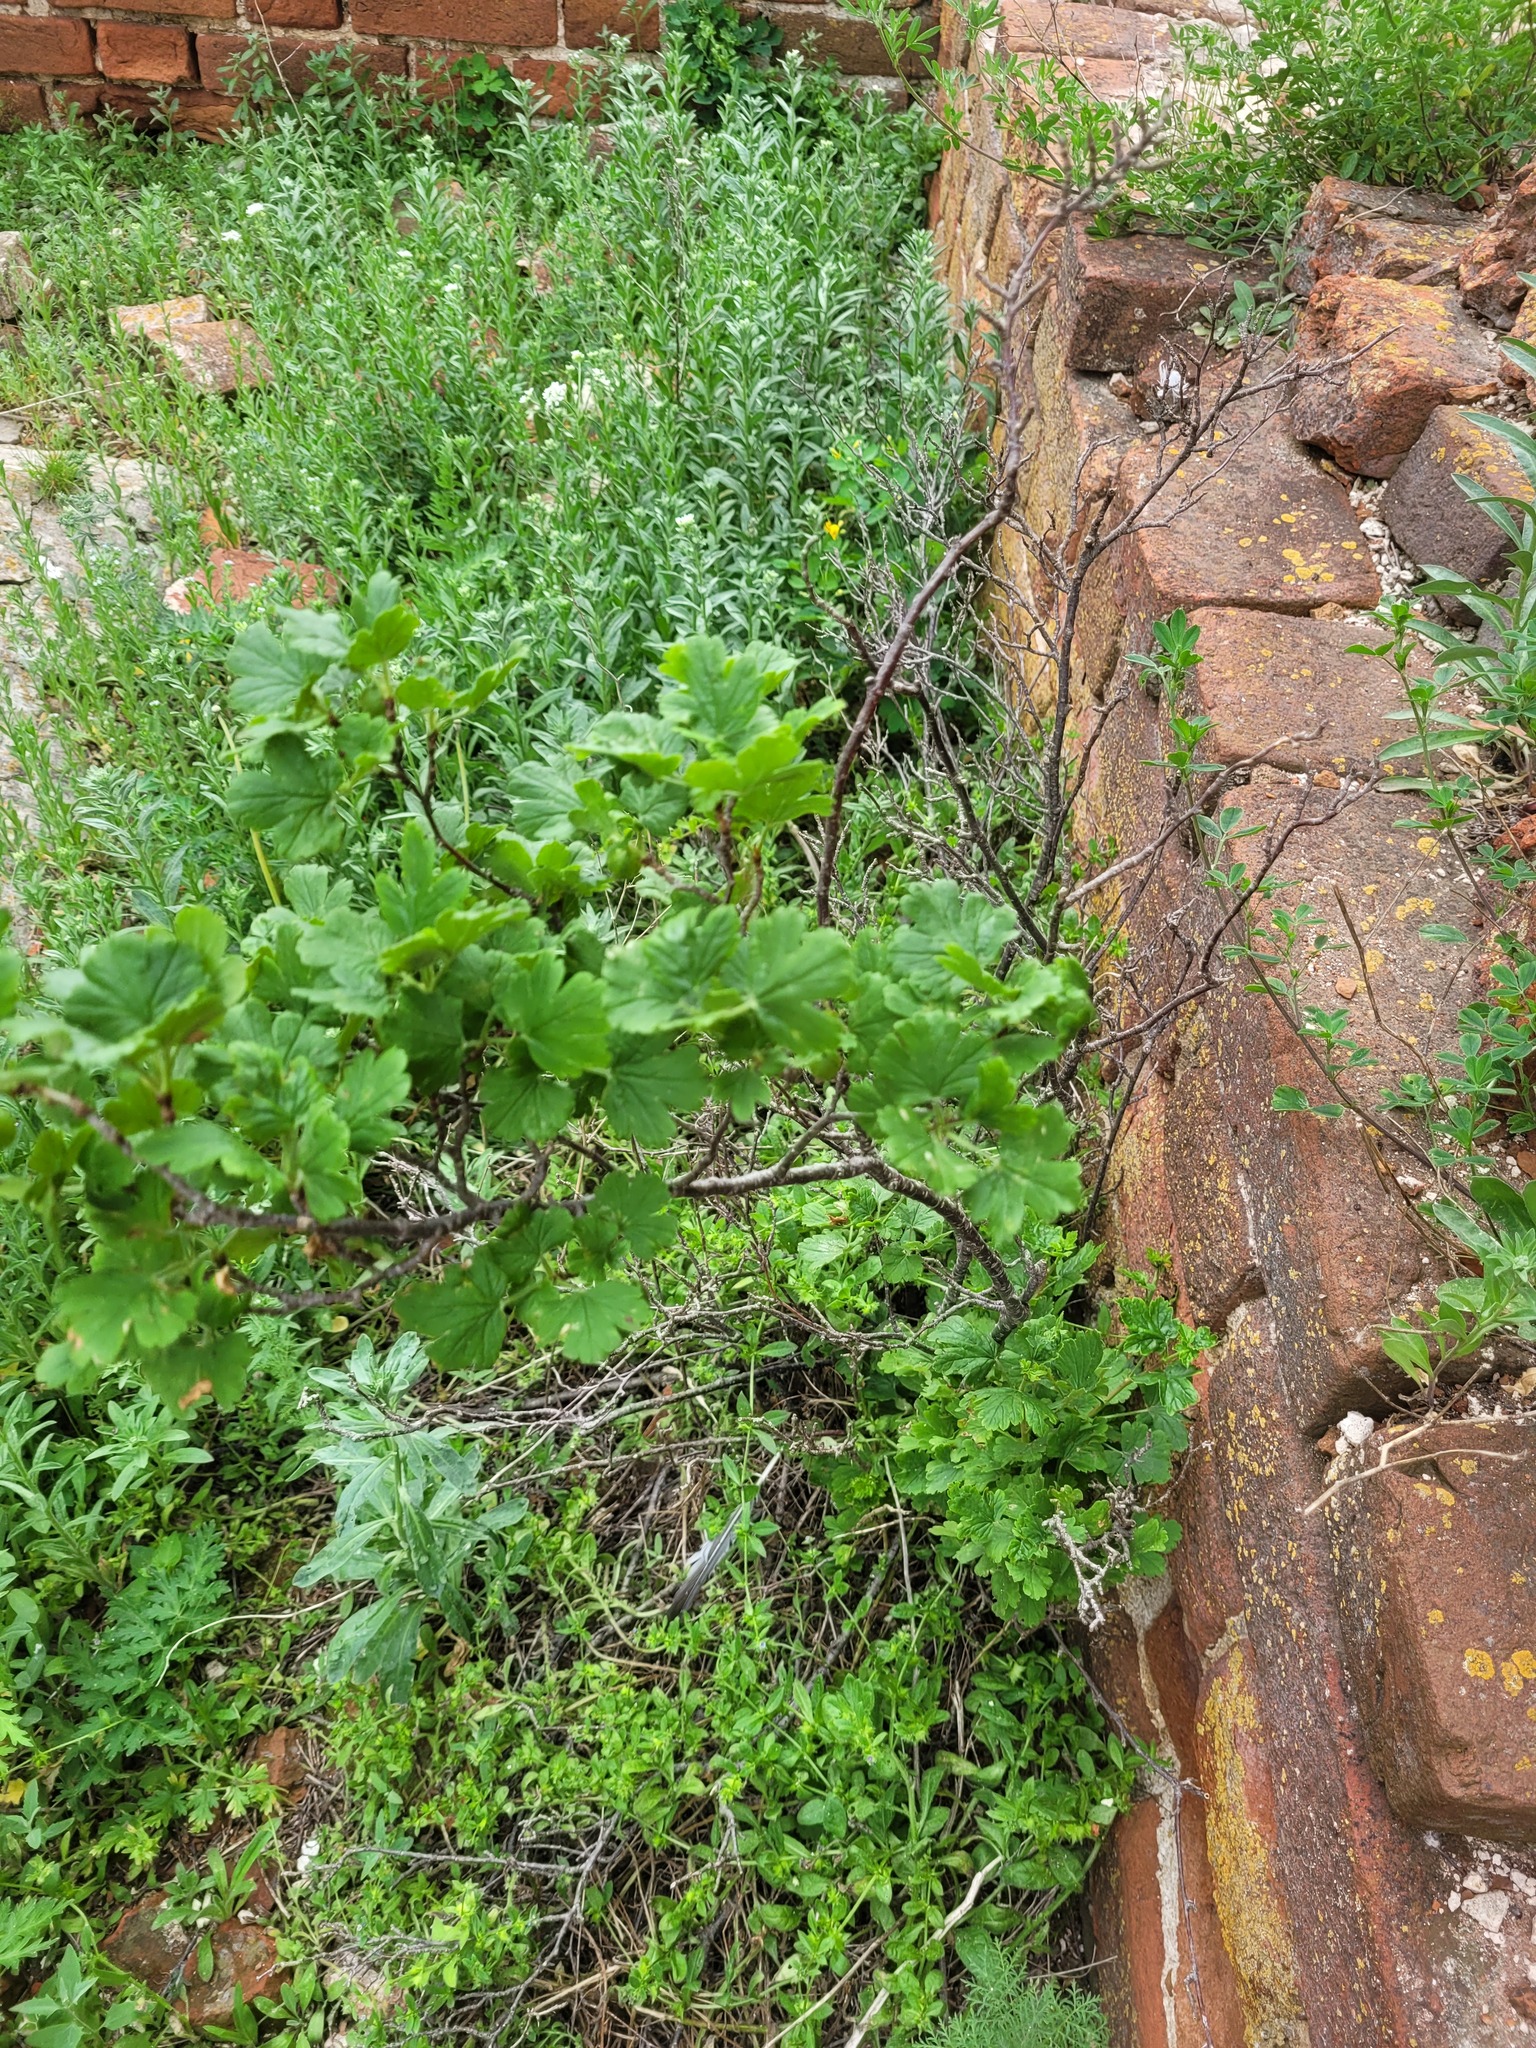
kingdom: Plantae
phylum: Tracheophyta
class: Magnoliopsida
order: Saxifragales
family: Grossulariaceae
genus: Ribes
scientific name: Ribes uva-crispa
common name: Gooseberry
